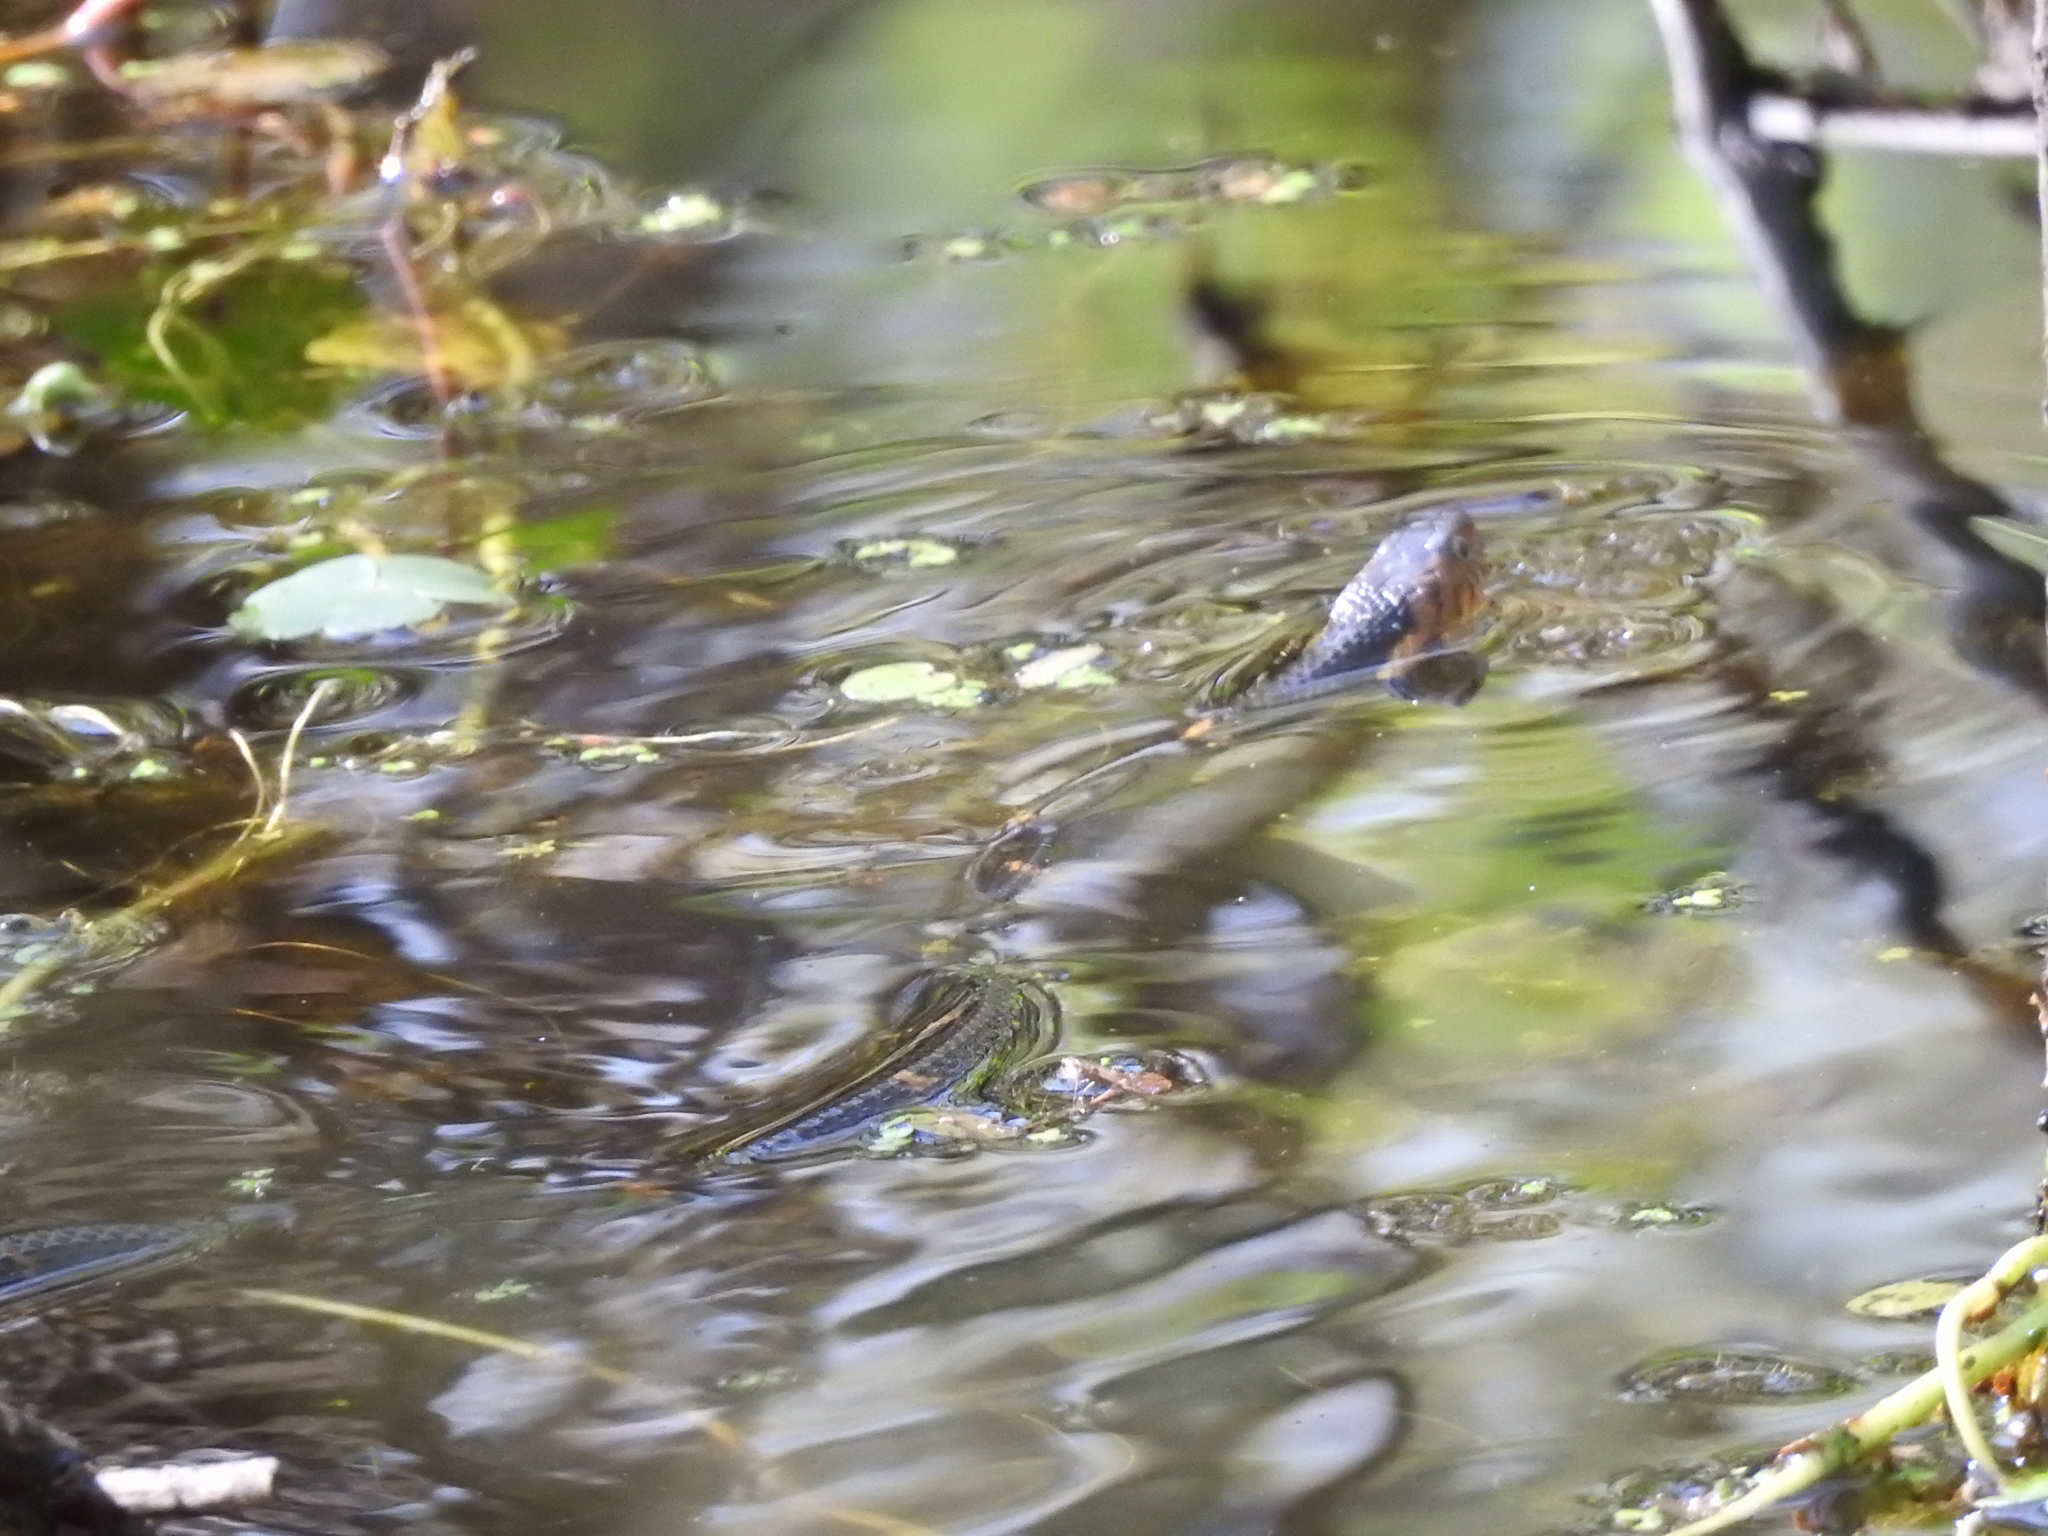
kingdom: Animalia
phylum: Chordata
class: Squamata
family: Colubridae
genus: Nerodia
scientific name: Nerodia fasciata
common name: Southern water snake
